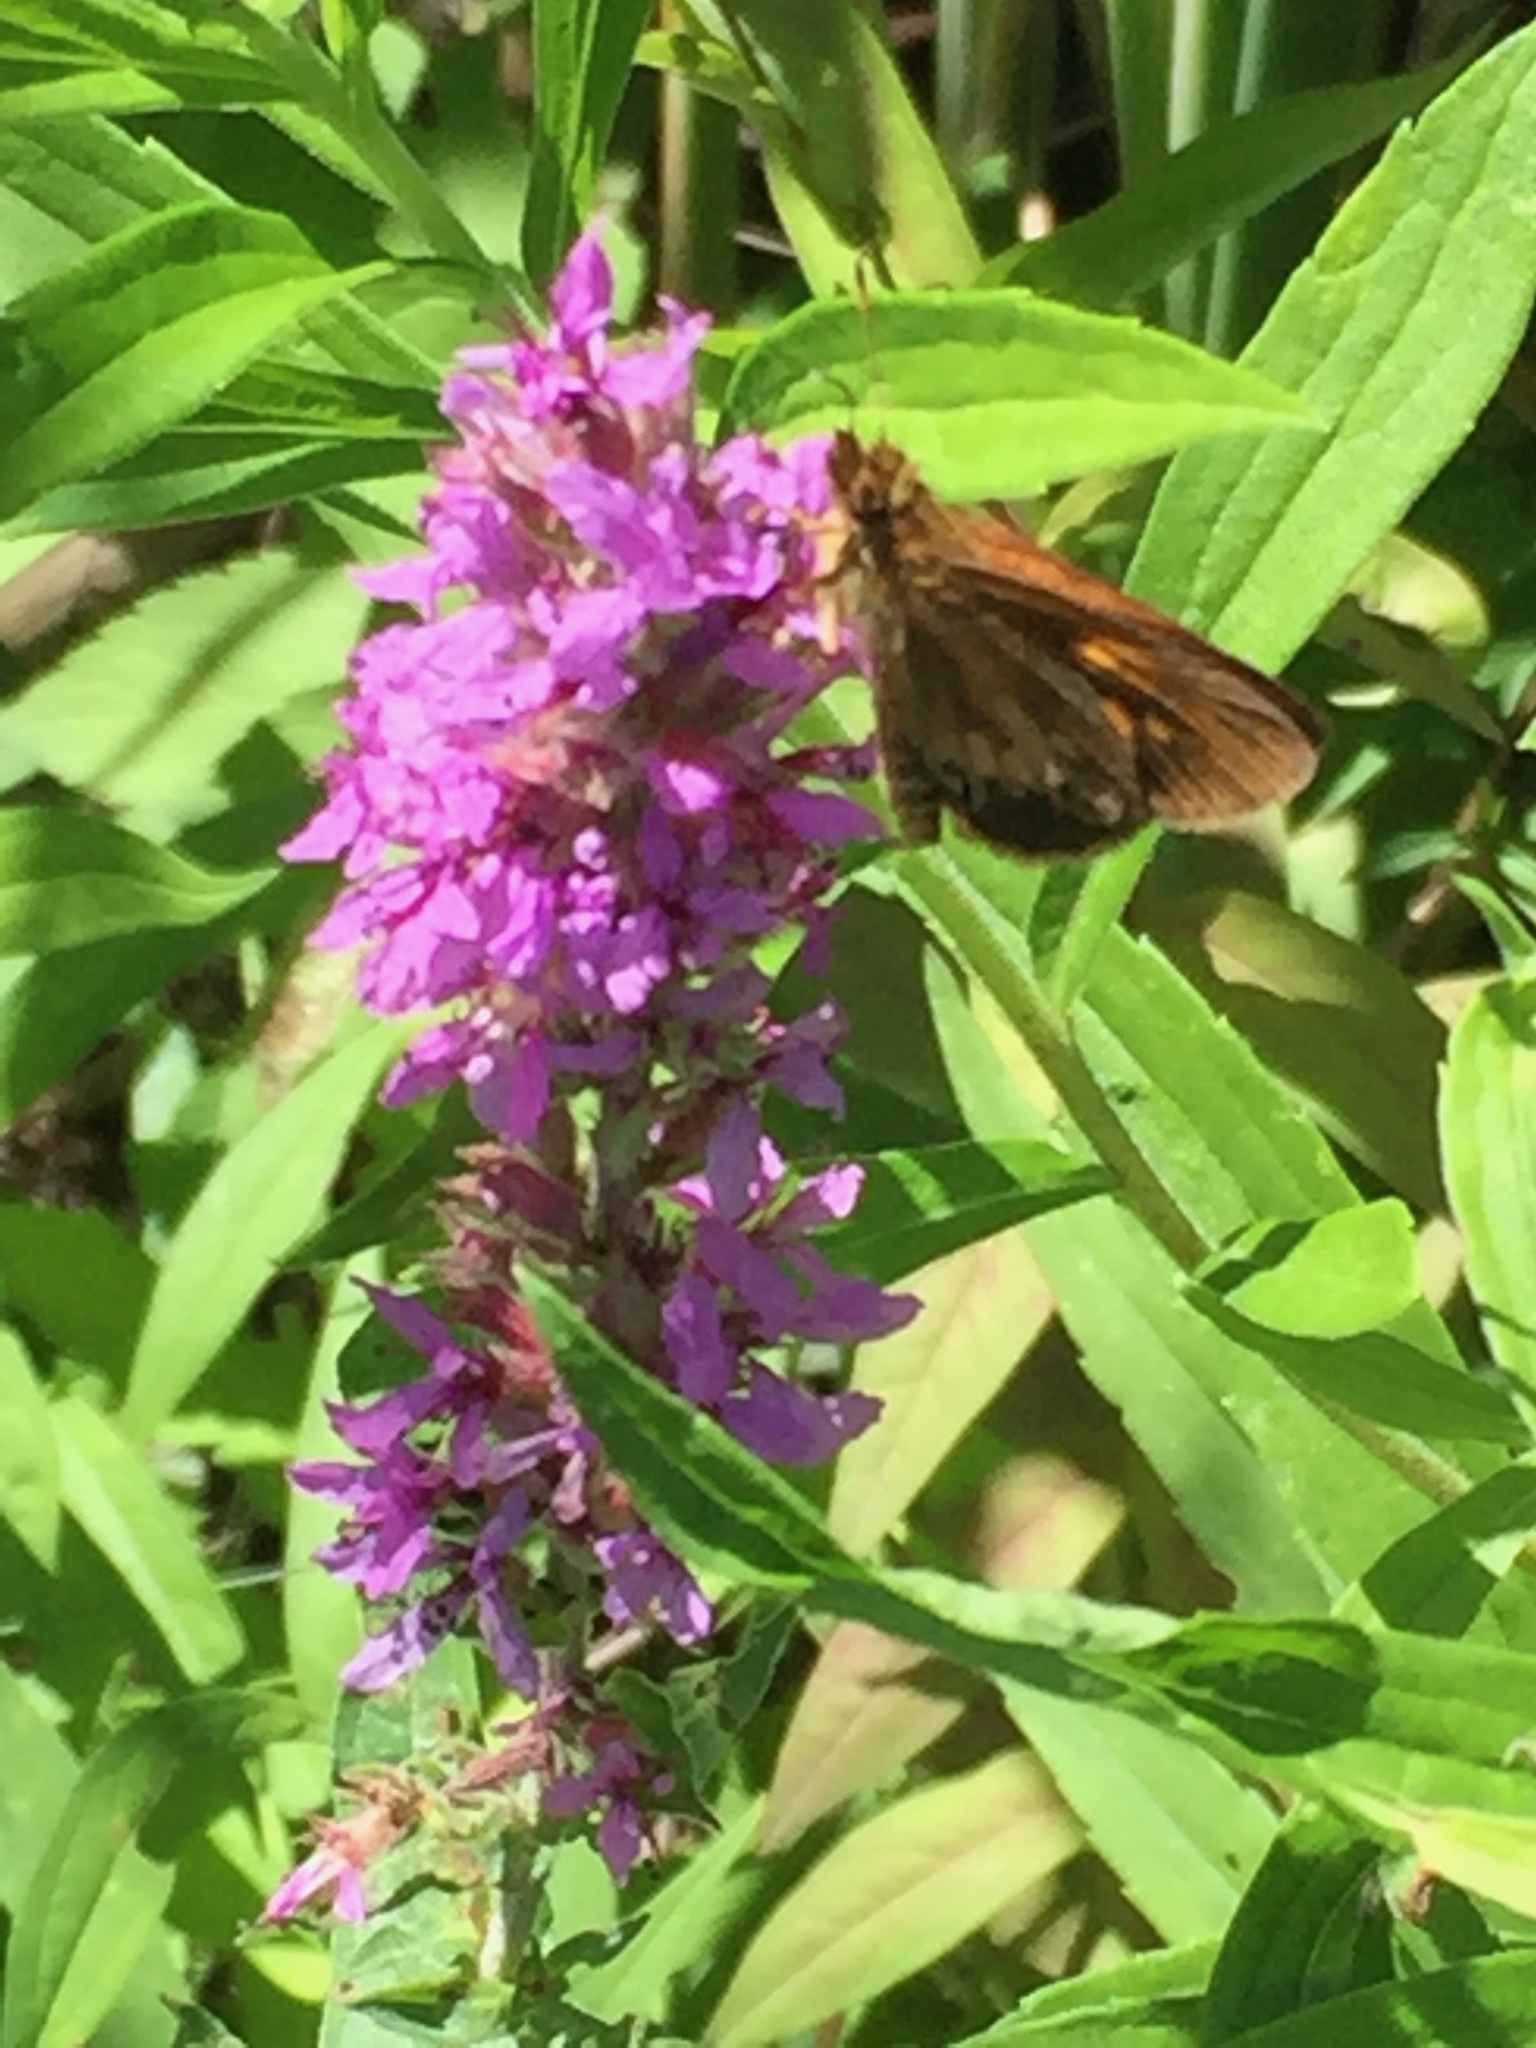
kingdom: Plantae
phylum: Tracheophyta
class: Magnoliopsida
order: Myrtales
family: Lythraceae
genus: Lythrum
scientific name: Lythrum salicaria
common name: Purple loosestrife
